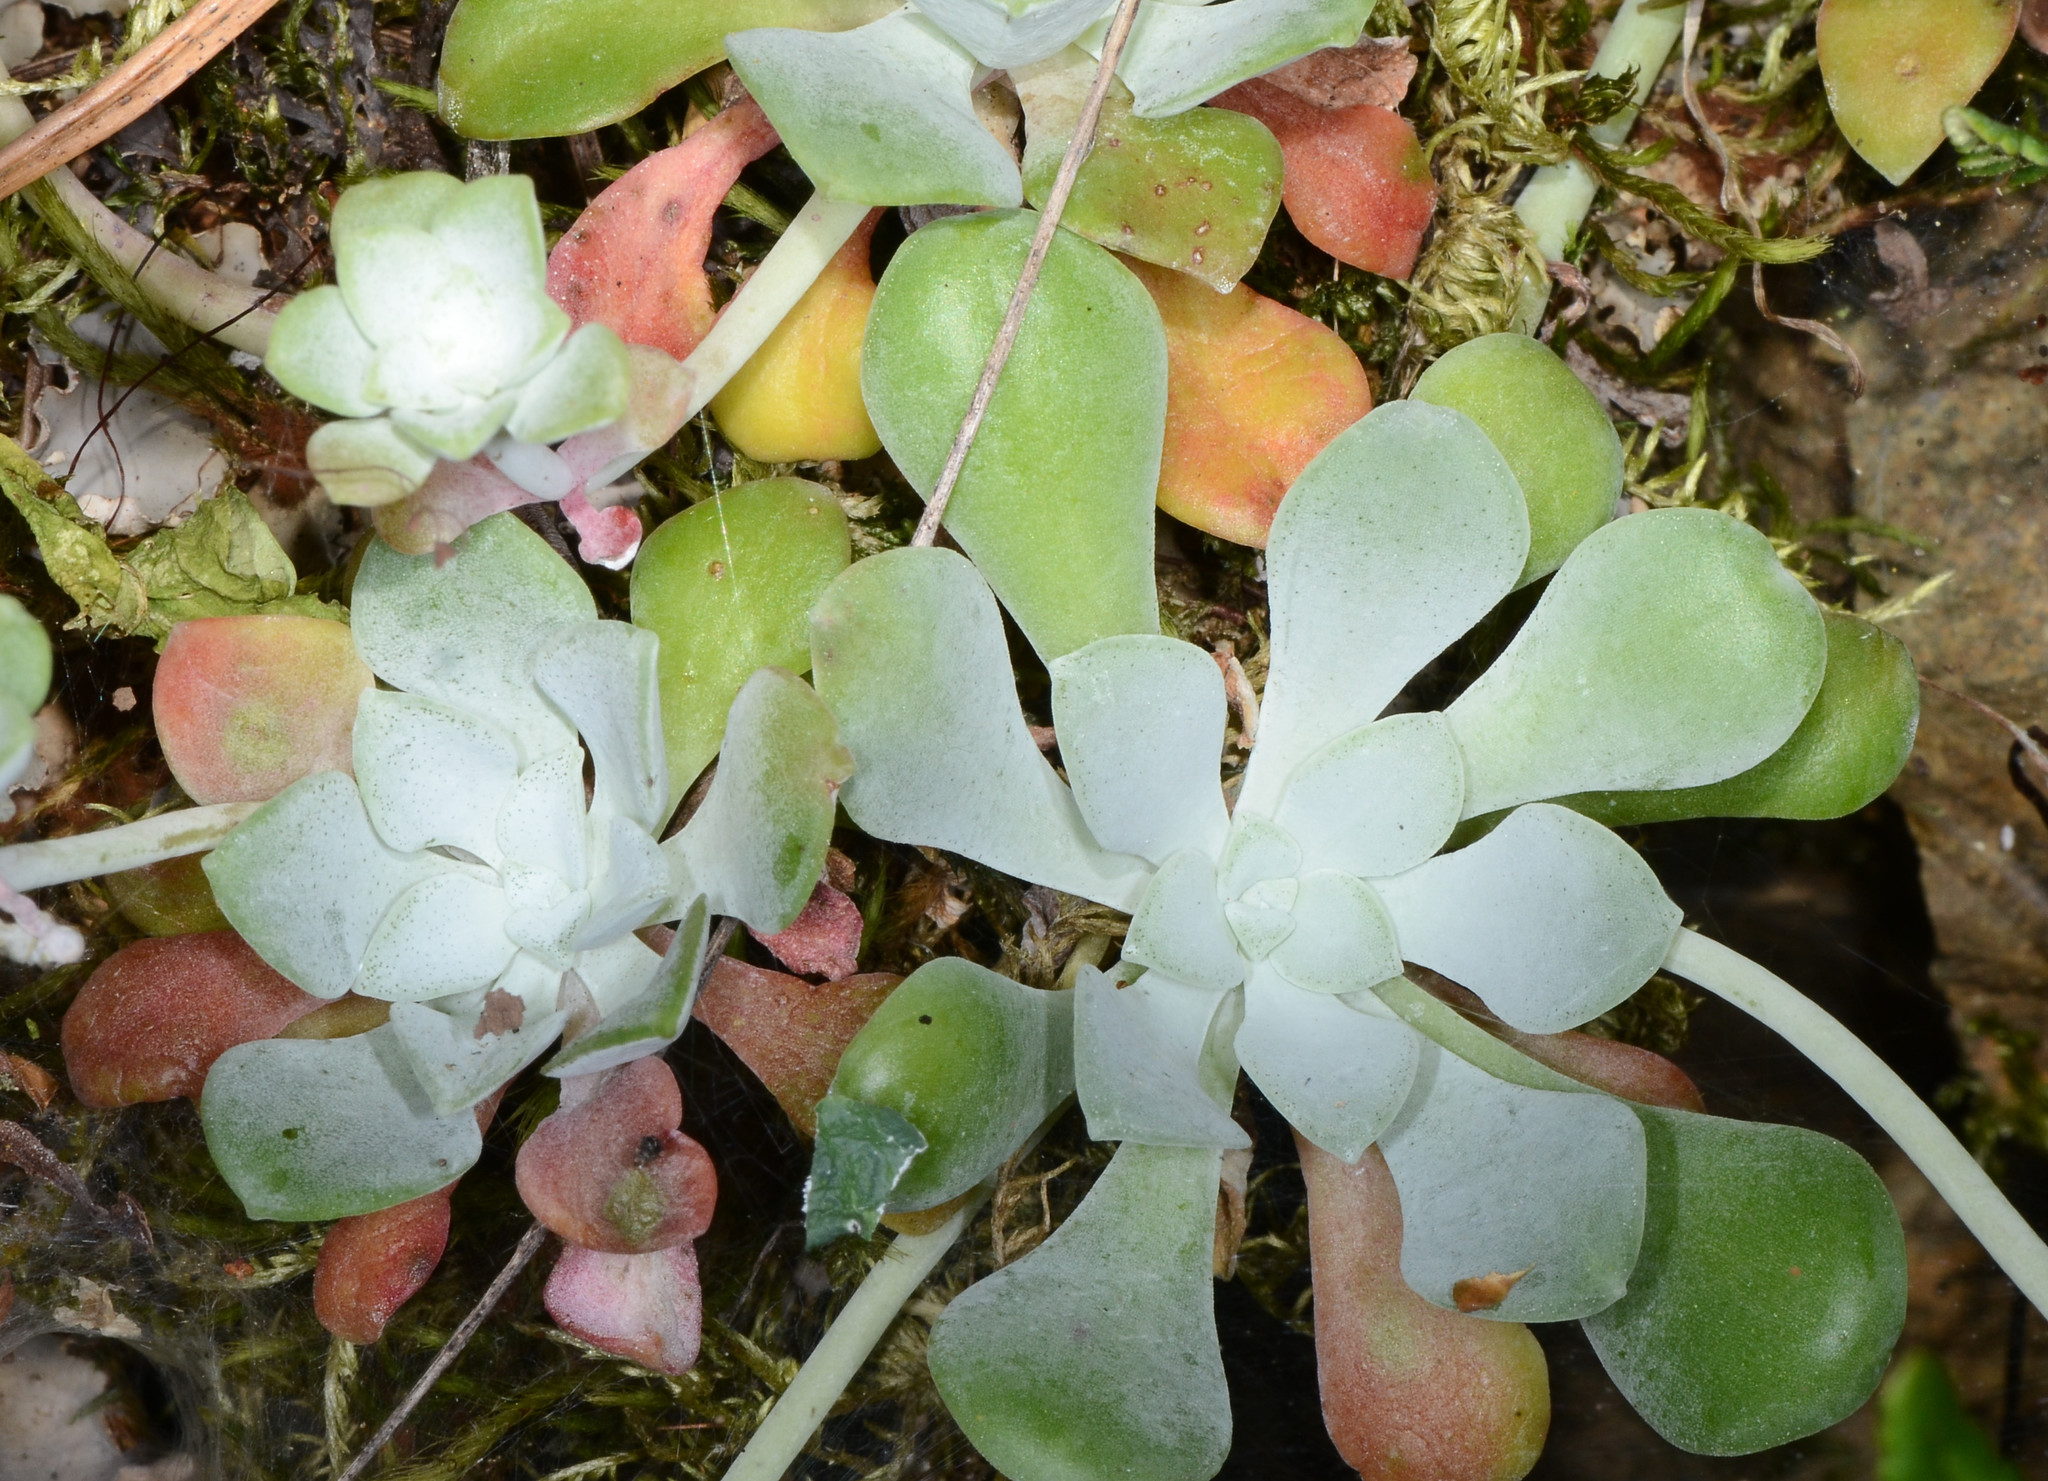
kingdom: Plantae
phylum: Tracheophyta
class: Magnoliopsida
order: Saxifragales
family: Crassulaceae
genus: Sedum
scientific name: Sedum spathulifolium
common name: Colorado stonecrop
